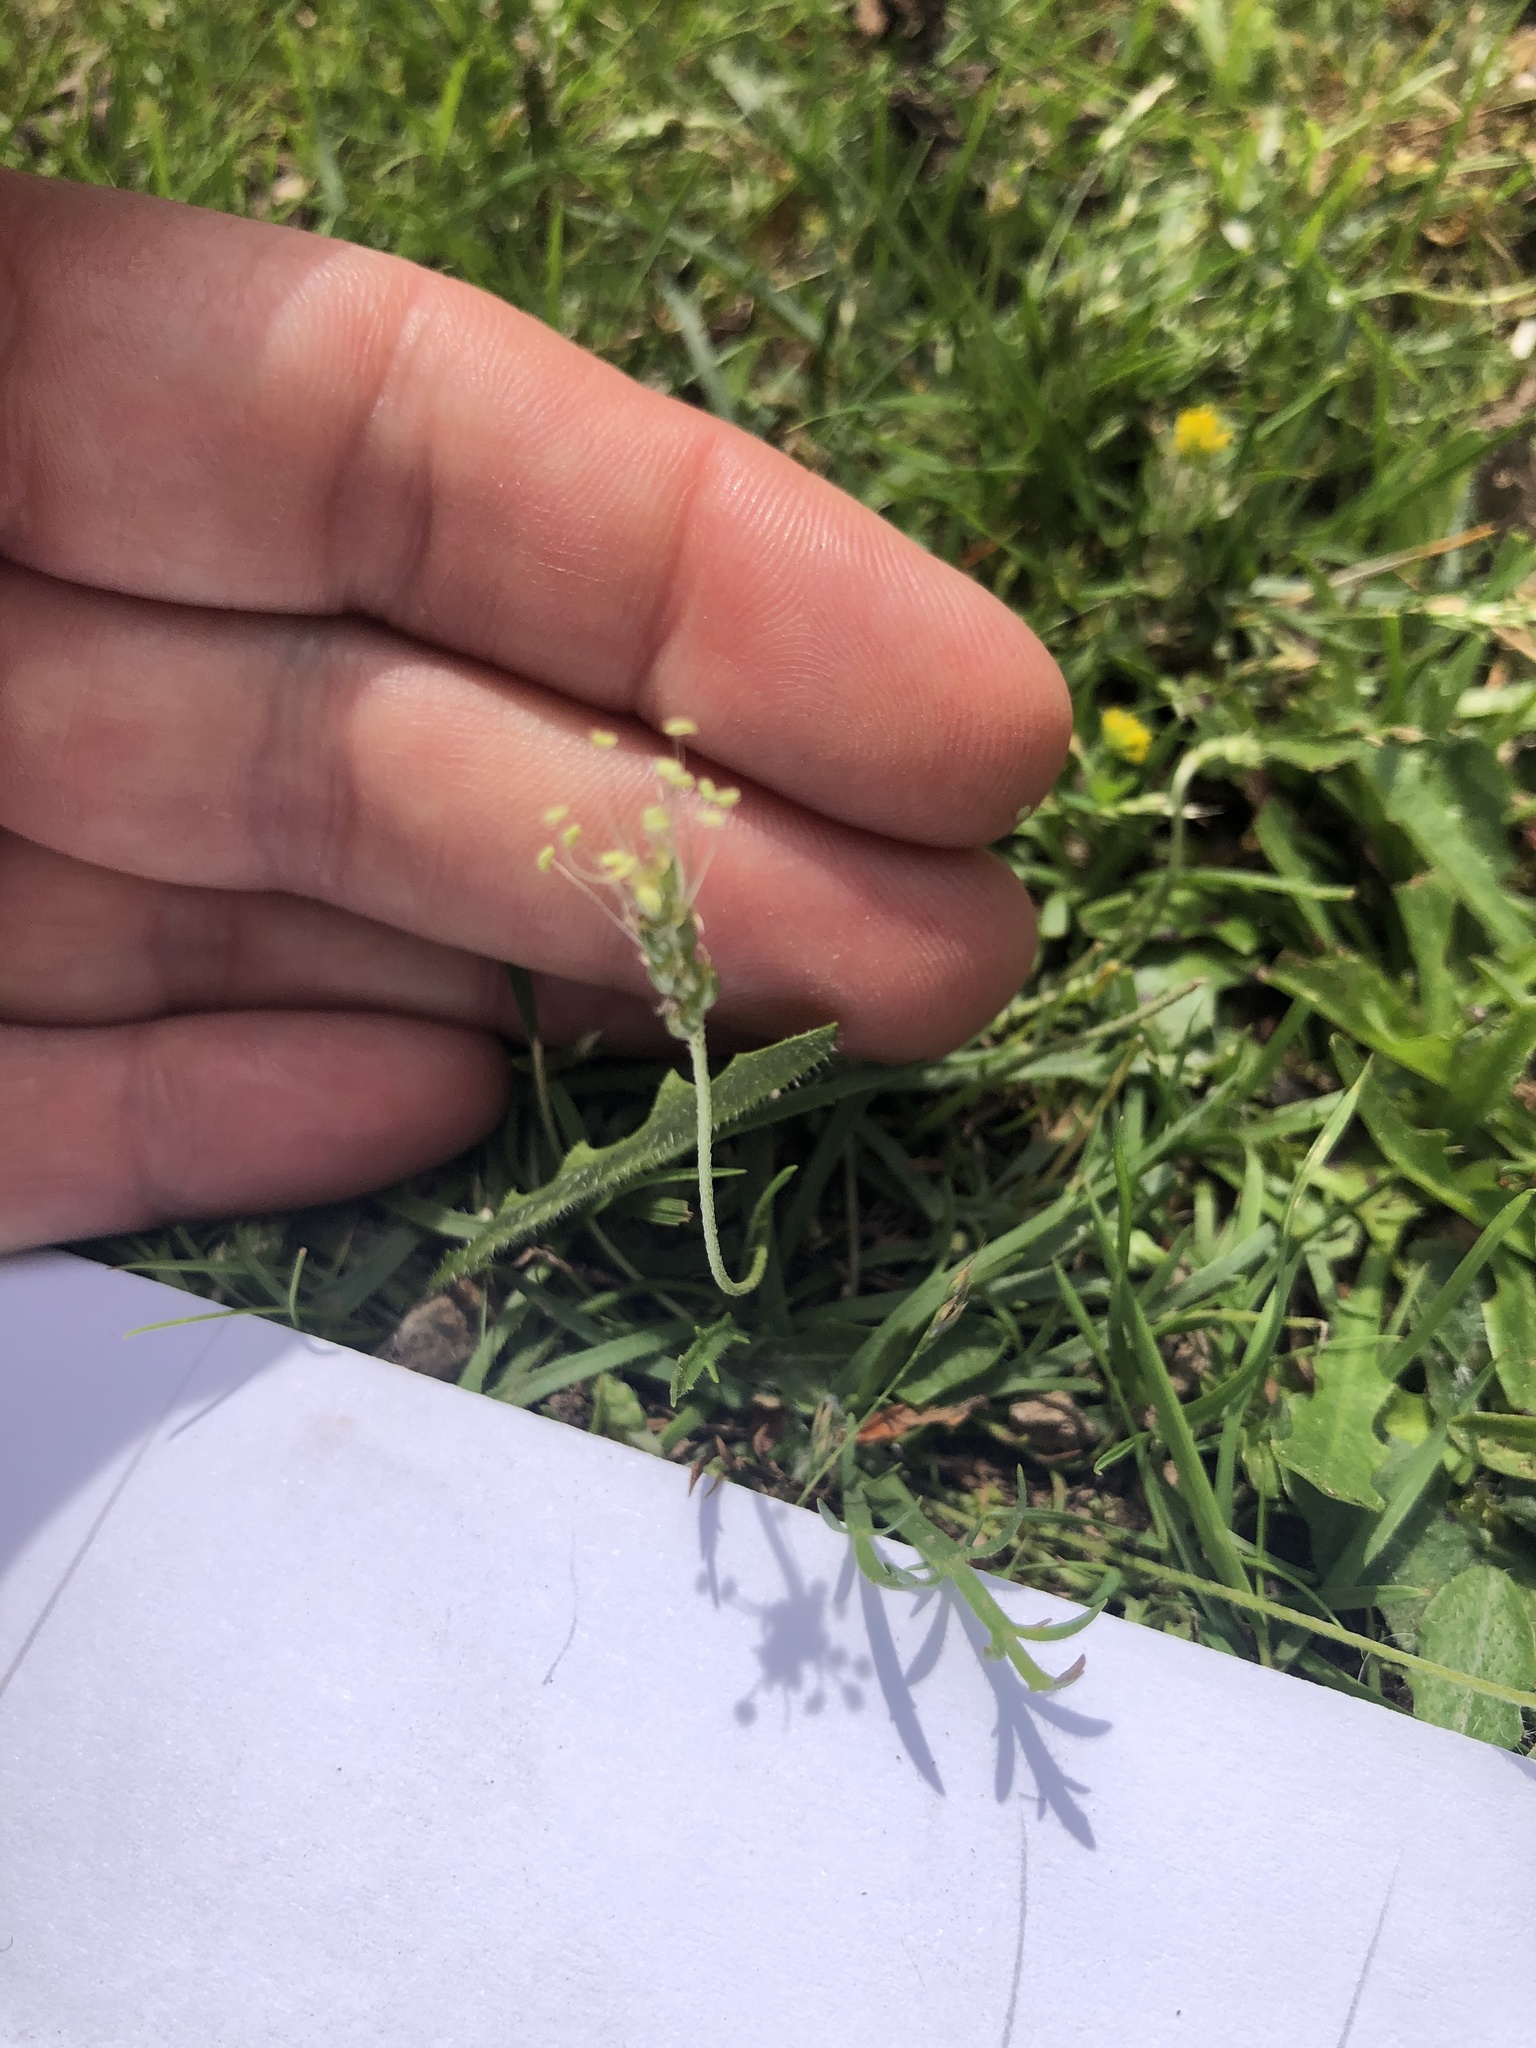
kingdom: Plantae
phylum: Tracheophyta
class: Magnoliopsida
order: Lamiales
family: Plantaginaceae
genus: Plantago
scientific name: Plantago coronopus
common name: Buck's-horn plantain
